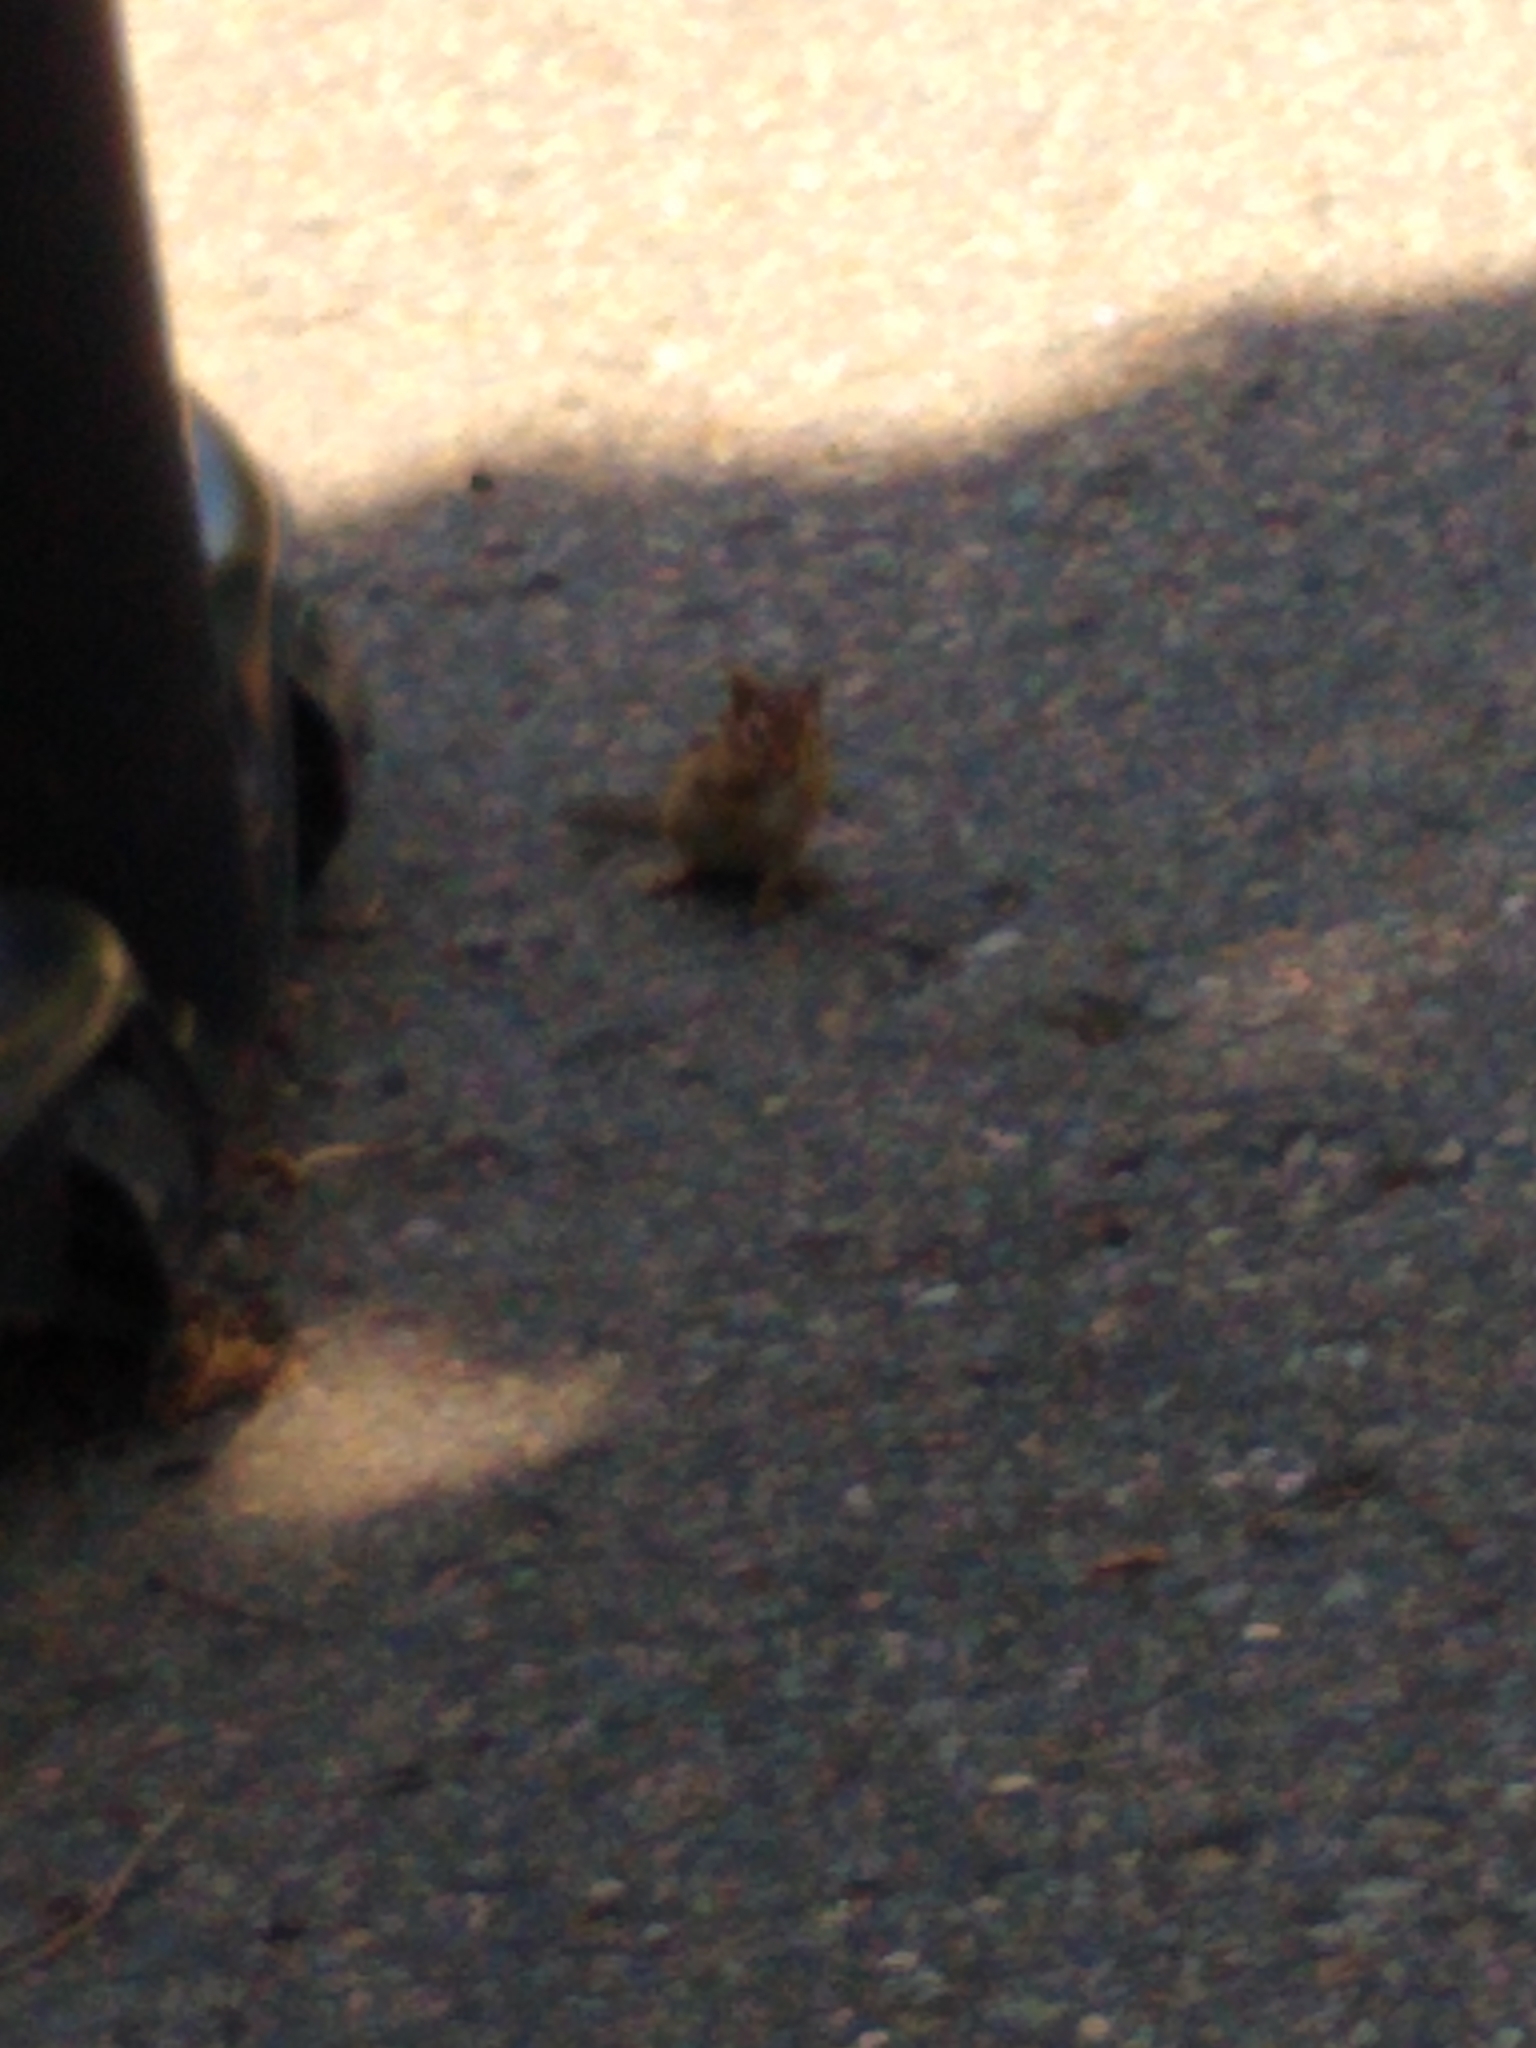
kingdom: Animalia
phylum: Chordata
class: Mammalia
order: Rodentia
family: Sciuridae
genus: Tamias
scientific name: Tamias striatus
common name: Eastern chipmunk
